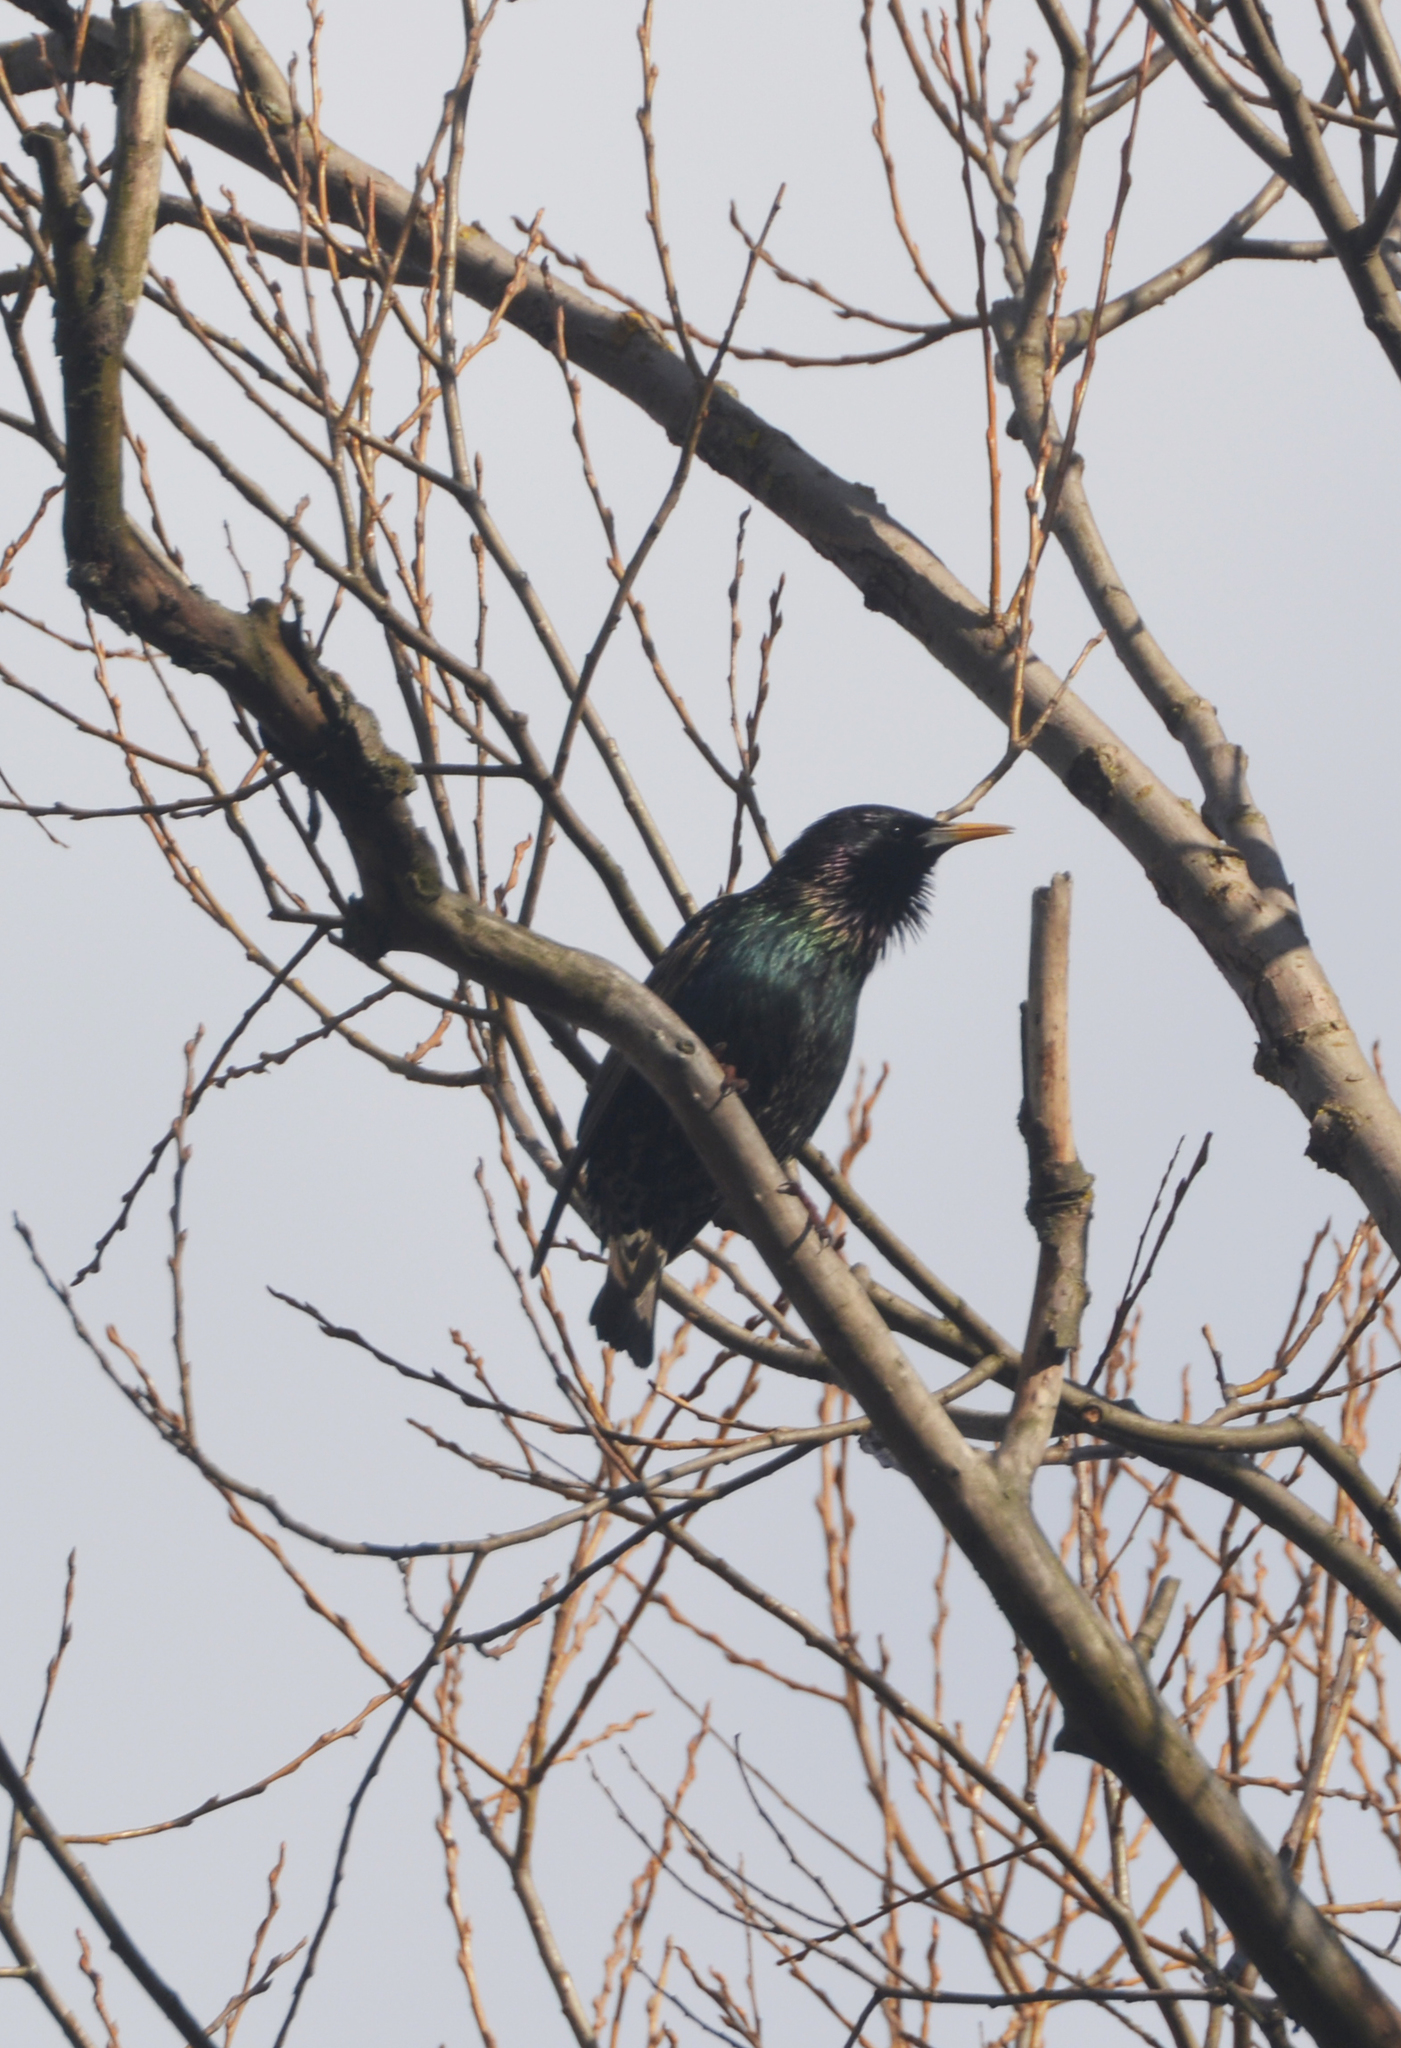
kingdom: Animalia
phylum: Chordata
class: Aves
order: Passeriformes
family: Sturnidae
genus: Sturnus
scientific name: Sturnus vulgaris
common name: Common starling
